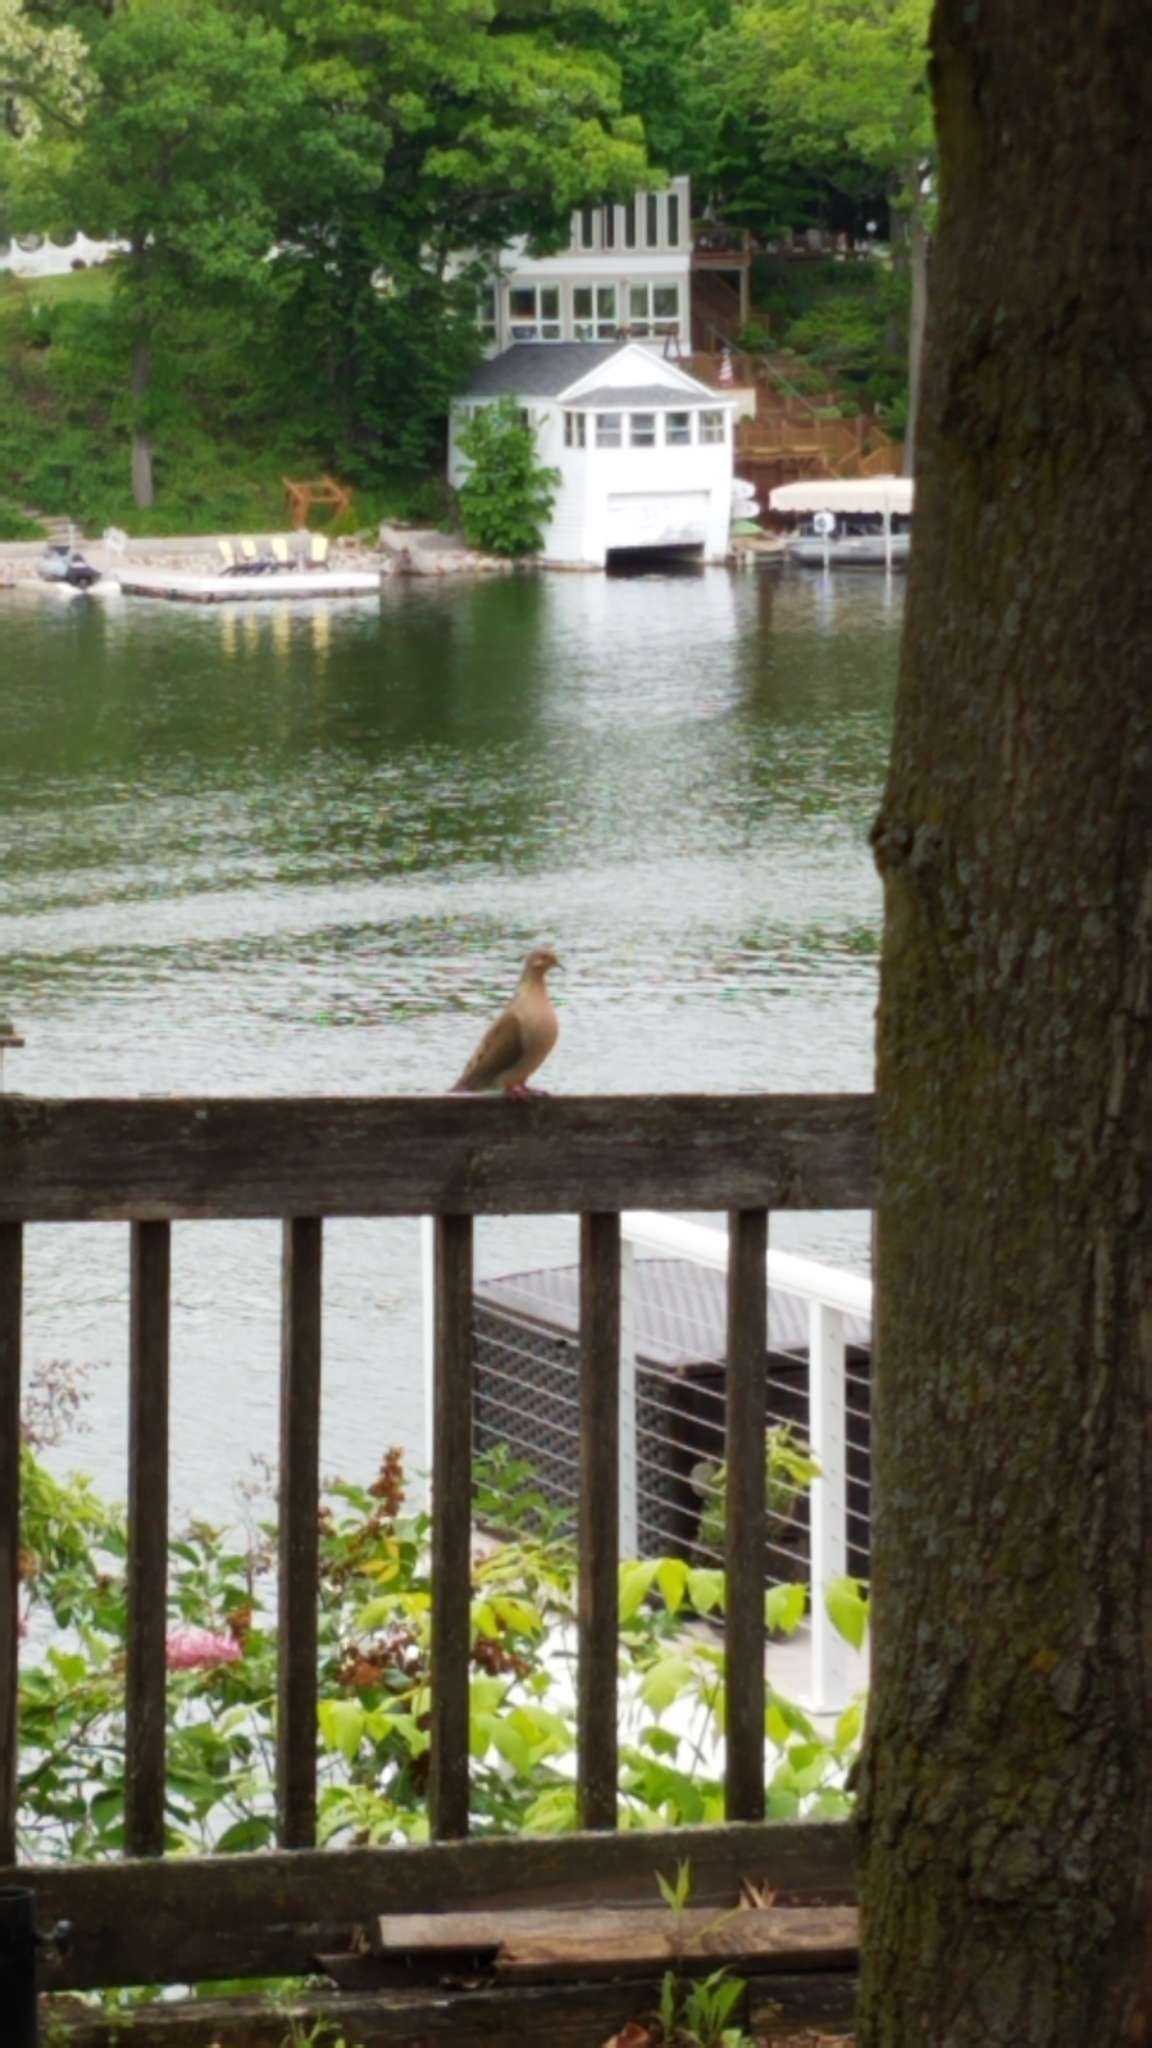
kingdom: Animalia
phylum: Chordata
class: Aves
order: Columbiformes
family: Columbidae
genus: Zenaida
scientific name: Zenaida macroura
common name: Mourning dove
